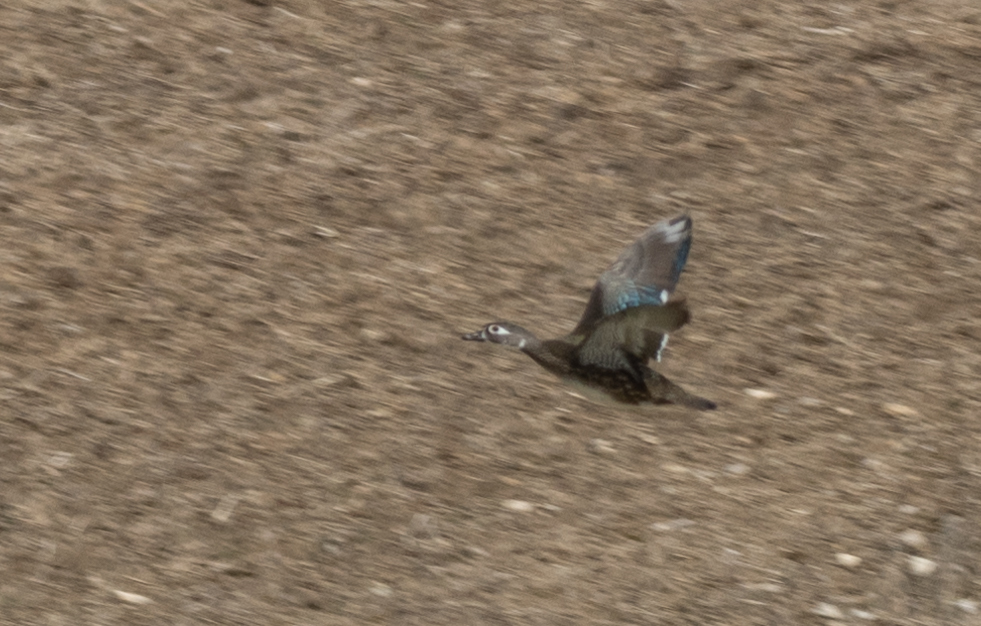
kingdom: Animalia
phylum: Chordata
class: Aves
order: Anseriformes
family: Anatidae
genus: Aix
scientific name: Aix sponsa
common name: Wood duck
